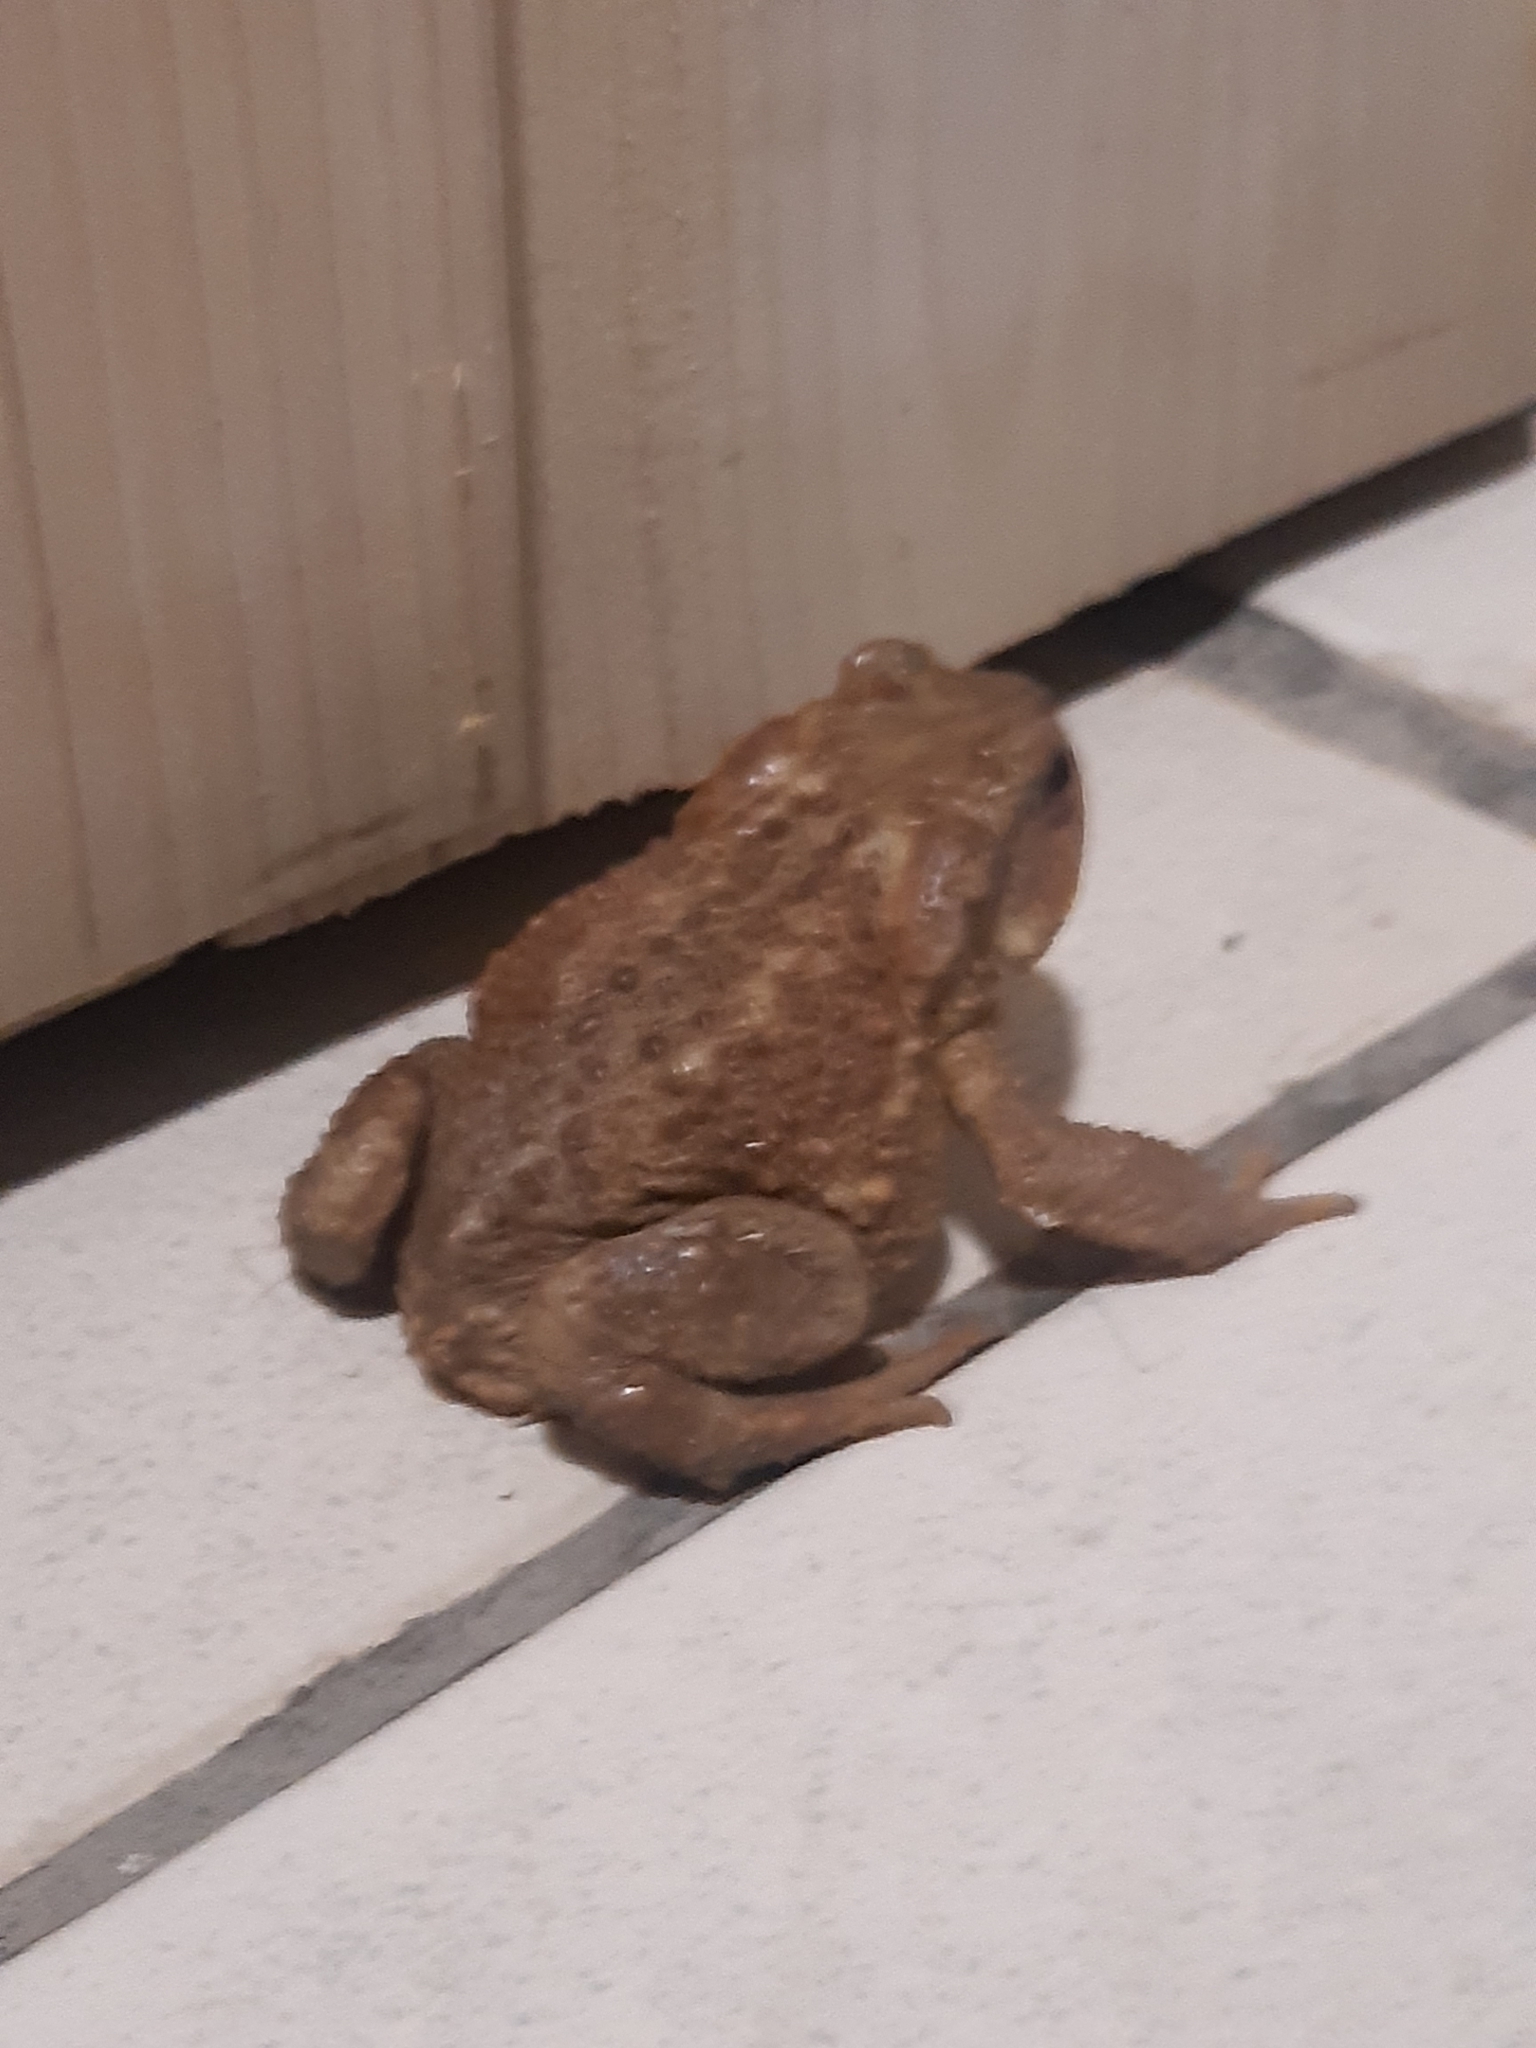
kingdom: Animalia
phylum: Chordata
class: Amphibia
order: Anura
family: Bufonidae
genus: Bufo
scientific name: Bufo spinosus
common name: Western common toad
